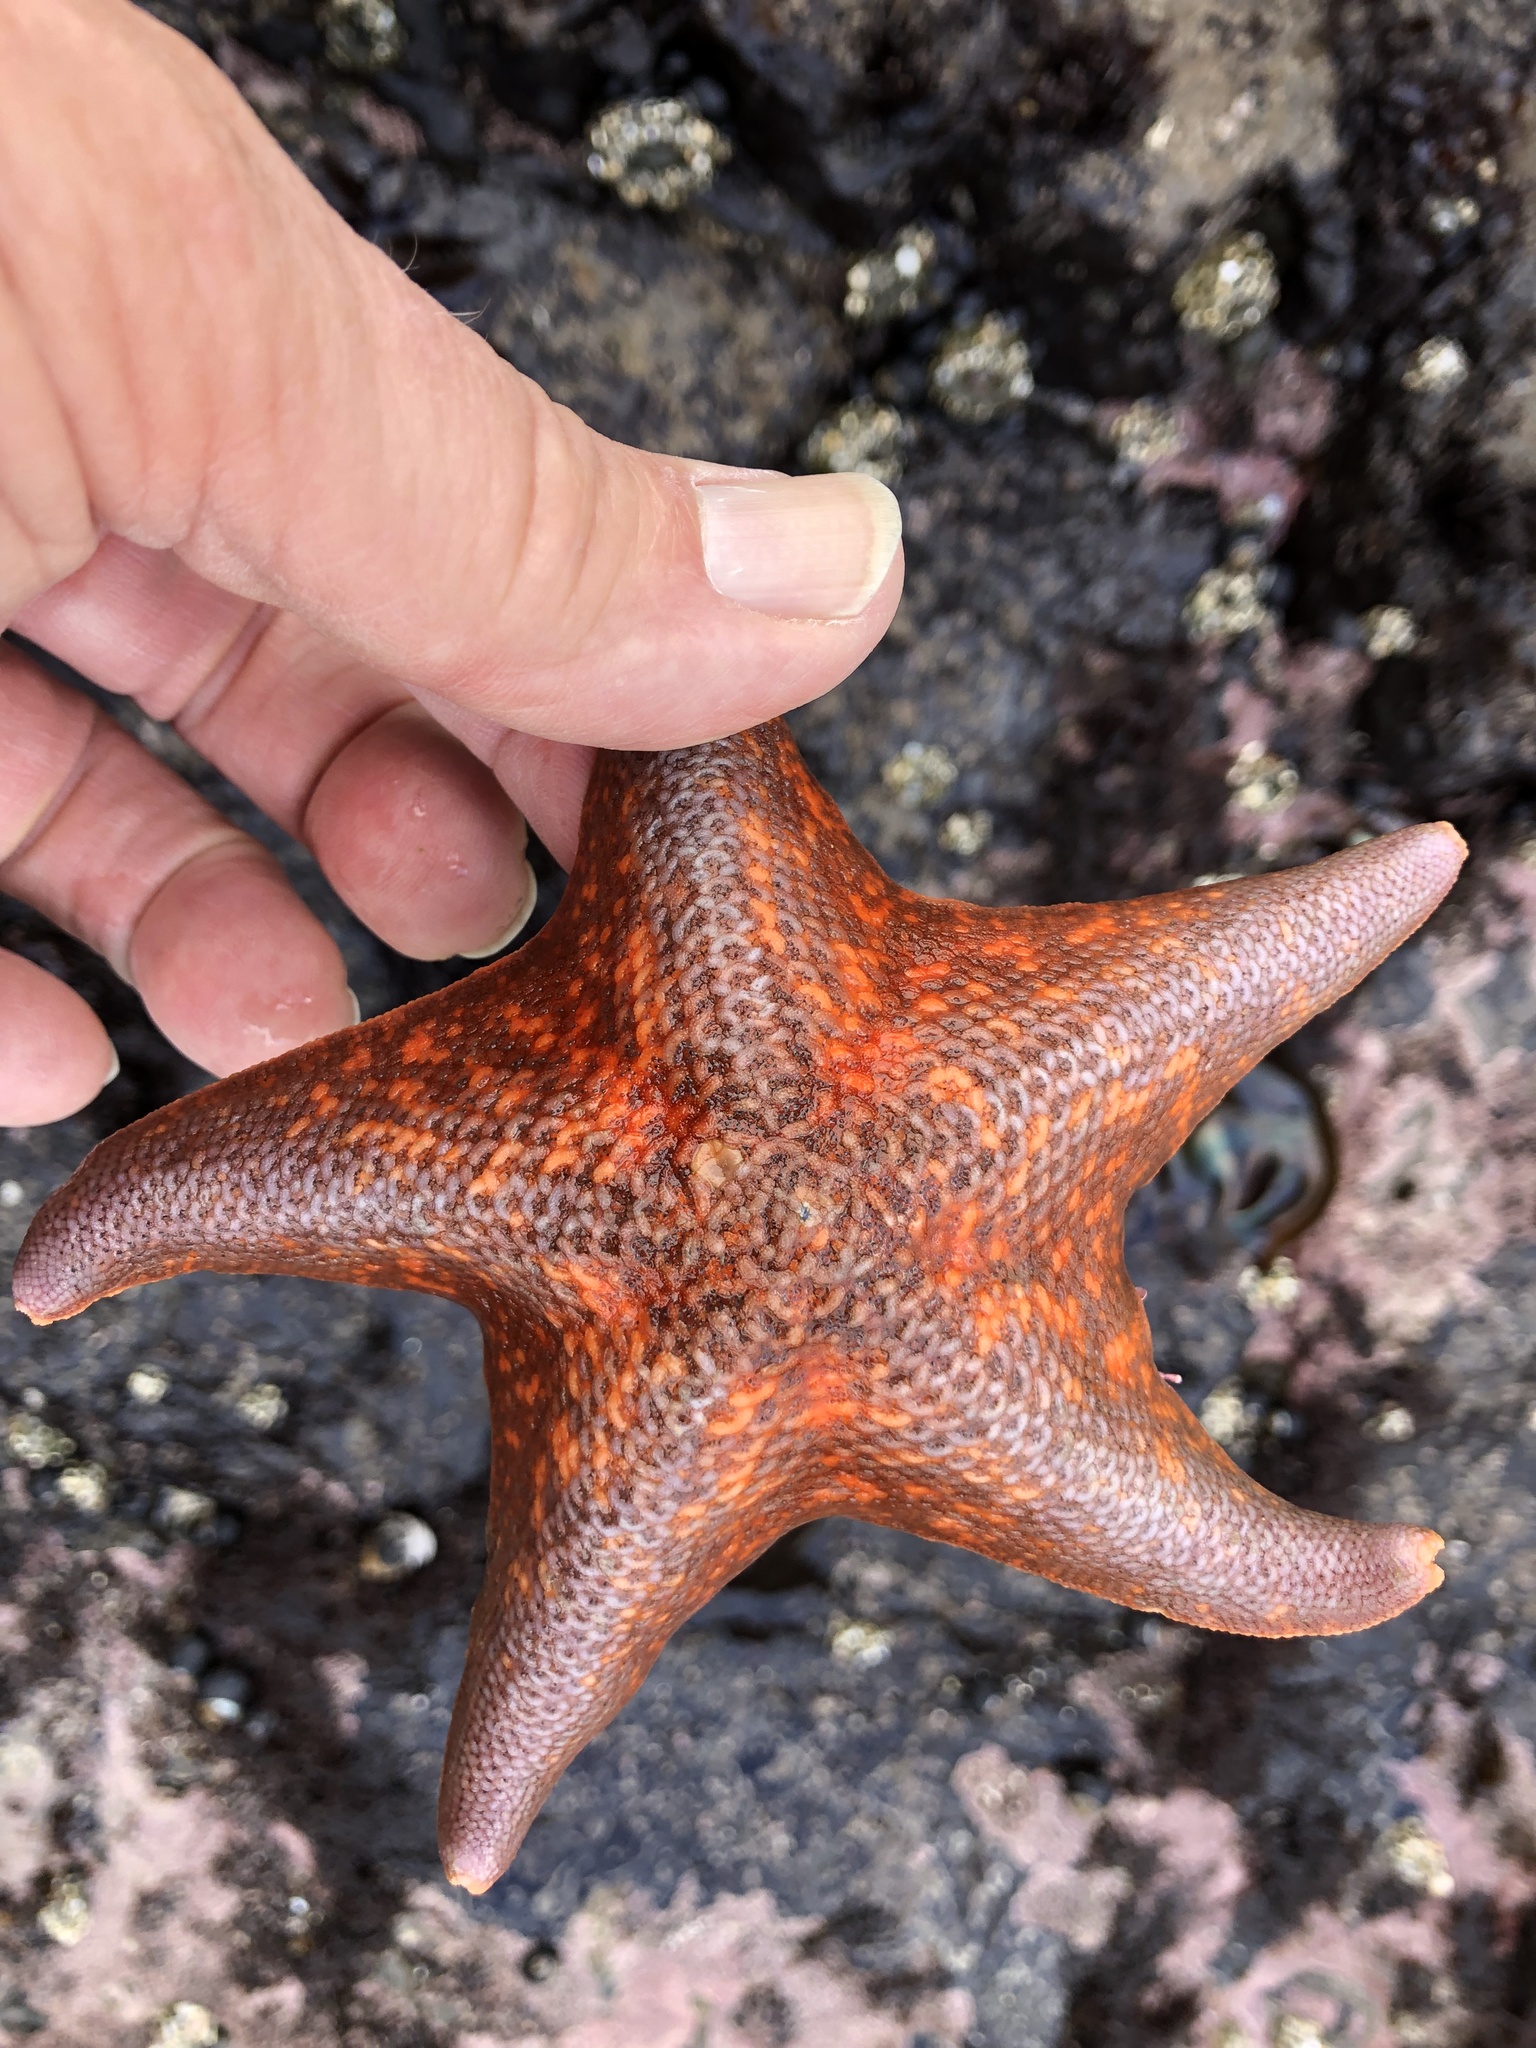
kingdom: Animalia
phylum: Echinodermata
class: Asteroidea
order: Valvatida
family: Asterinidae
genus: Patiria
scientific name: Patiria miniata
